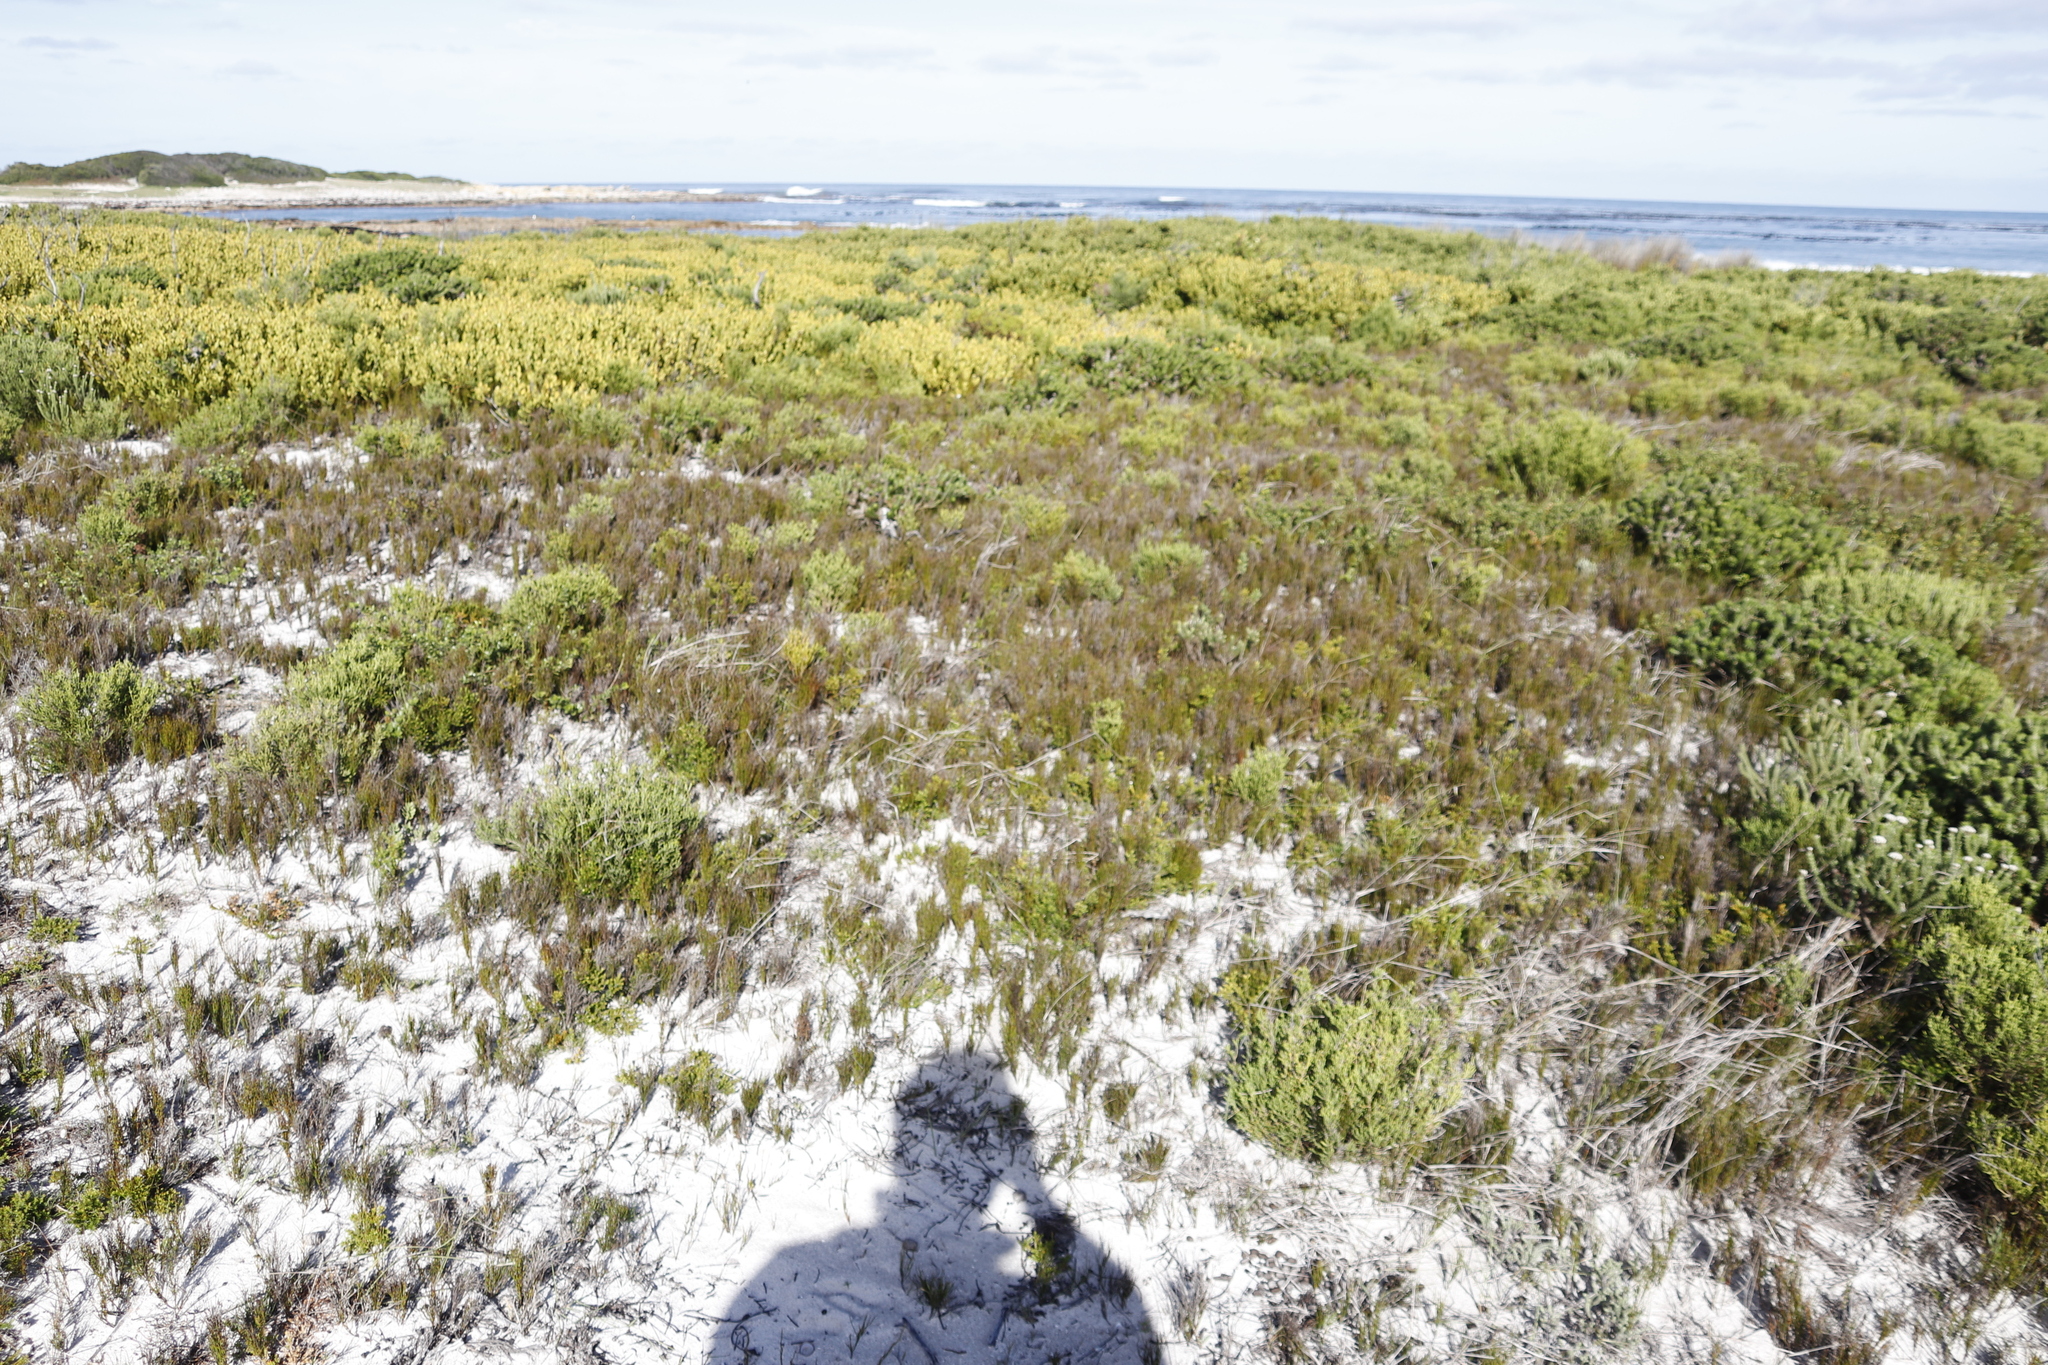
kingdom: Plantae
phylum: Tracheophyta
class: Liliopsida
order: Poales
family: Restionaceae
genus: Restio
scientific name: Restio eleocharis
